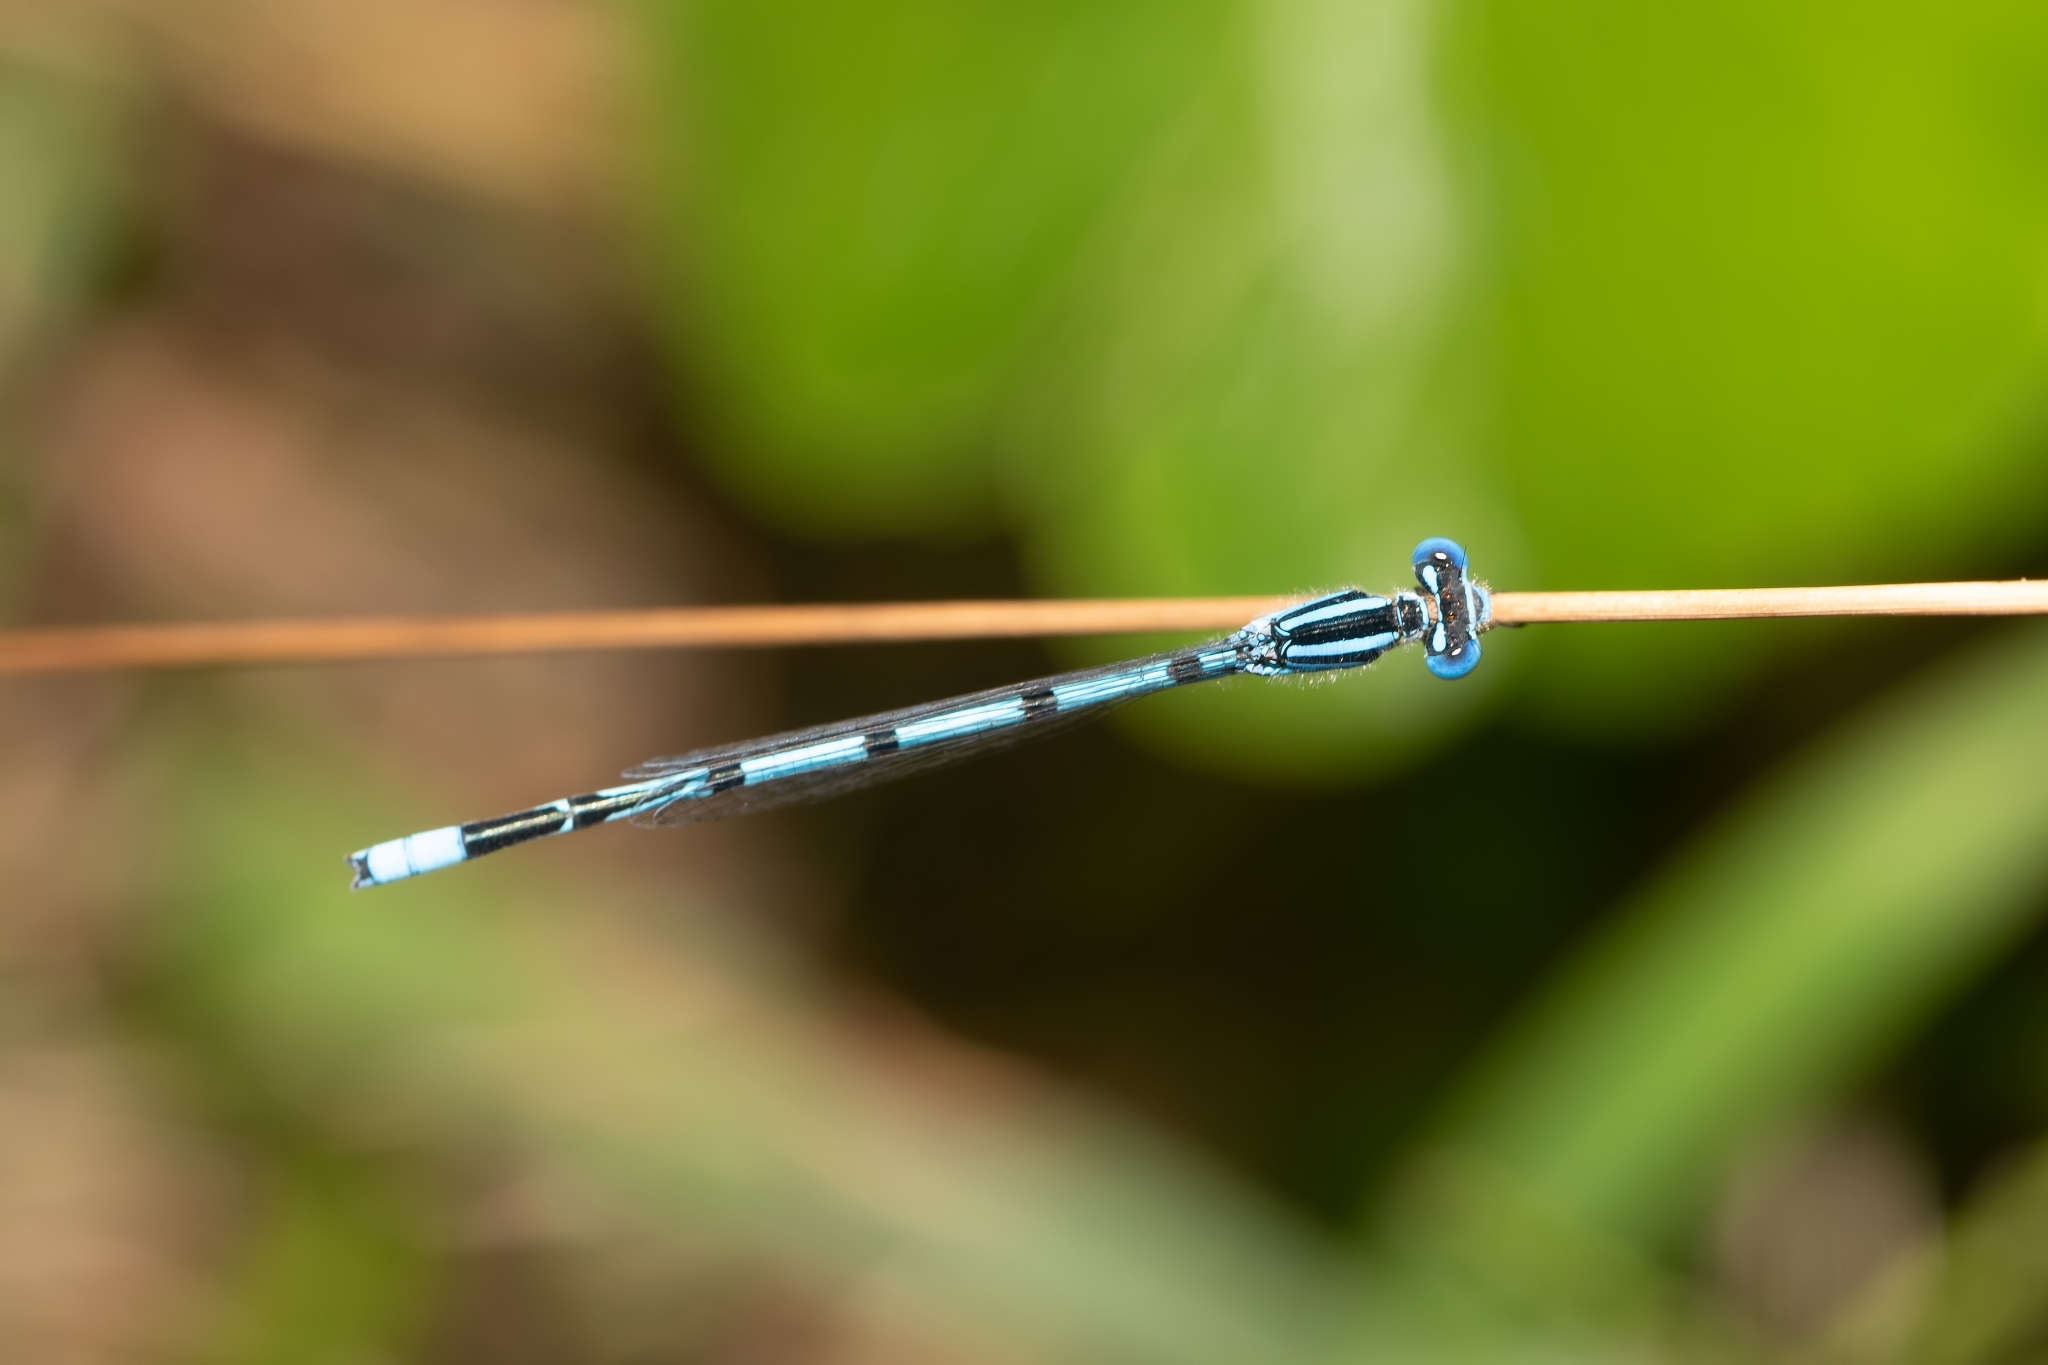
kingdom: Animalia
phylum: Arthropoda
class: Insecta
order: Odonata
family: Coenagrionidae
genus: Enallagma
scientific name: Enallagma doubledayi
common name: Atlantic bluet
